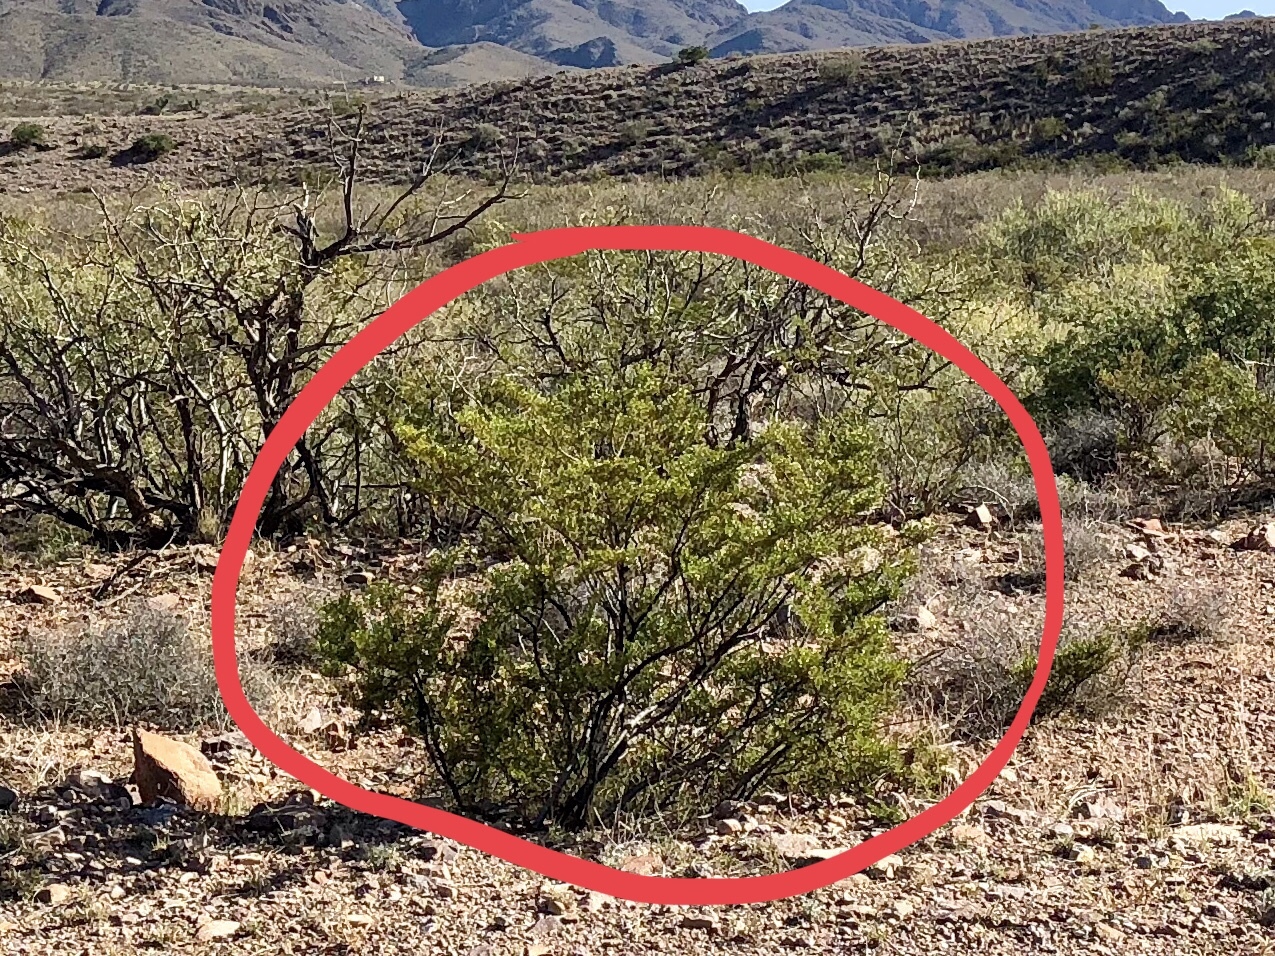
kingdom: Plantae
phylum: Tracheophyta
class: Magnoliopsida
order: Zygophyllales
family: Zygophyllaceae
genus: Larrea
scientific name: Larrea tridentata
